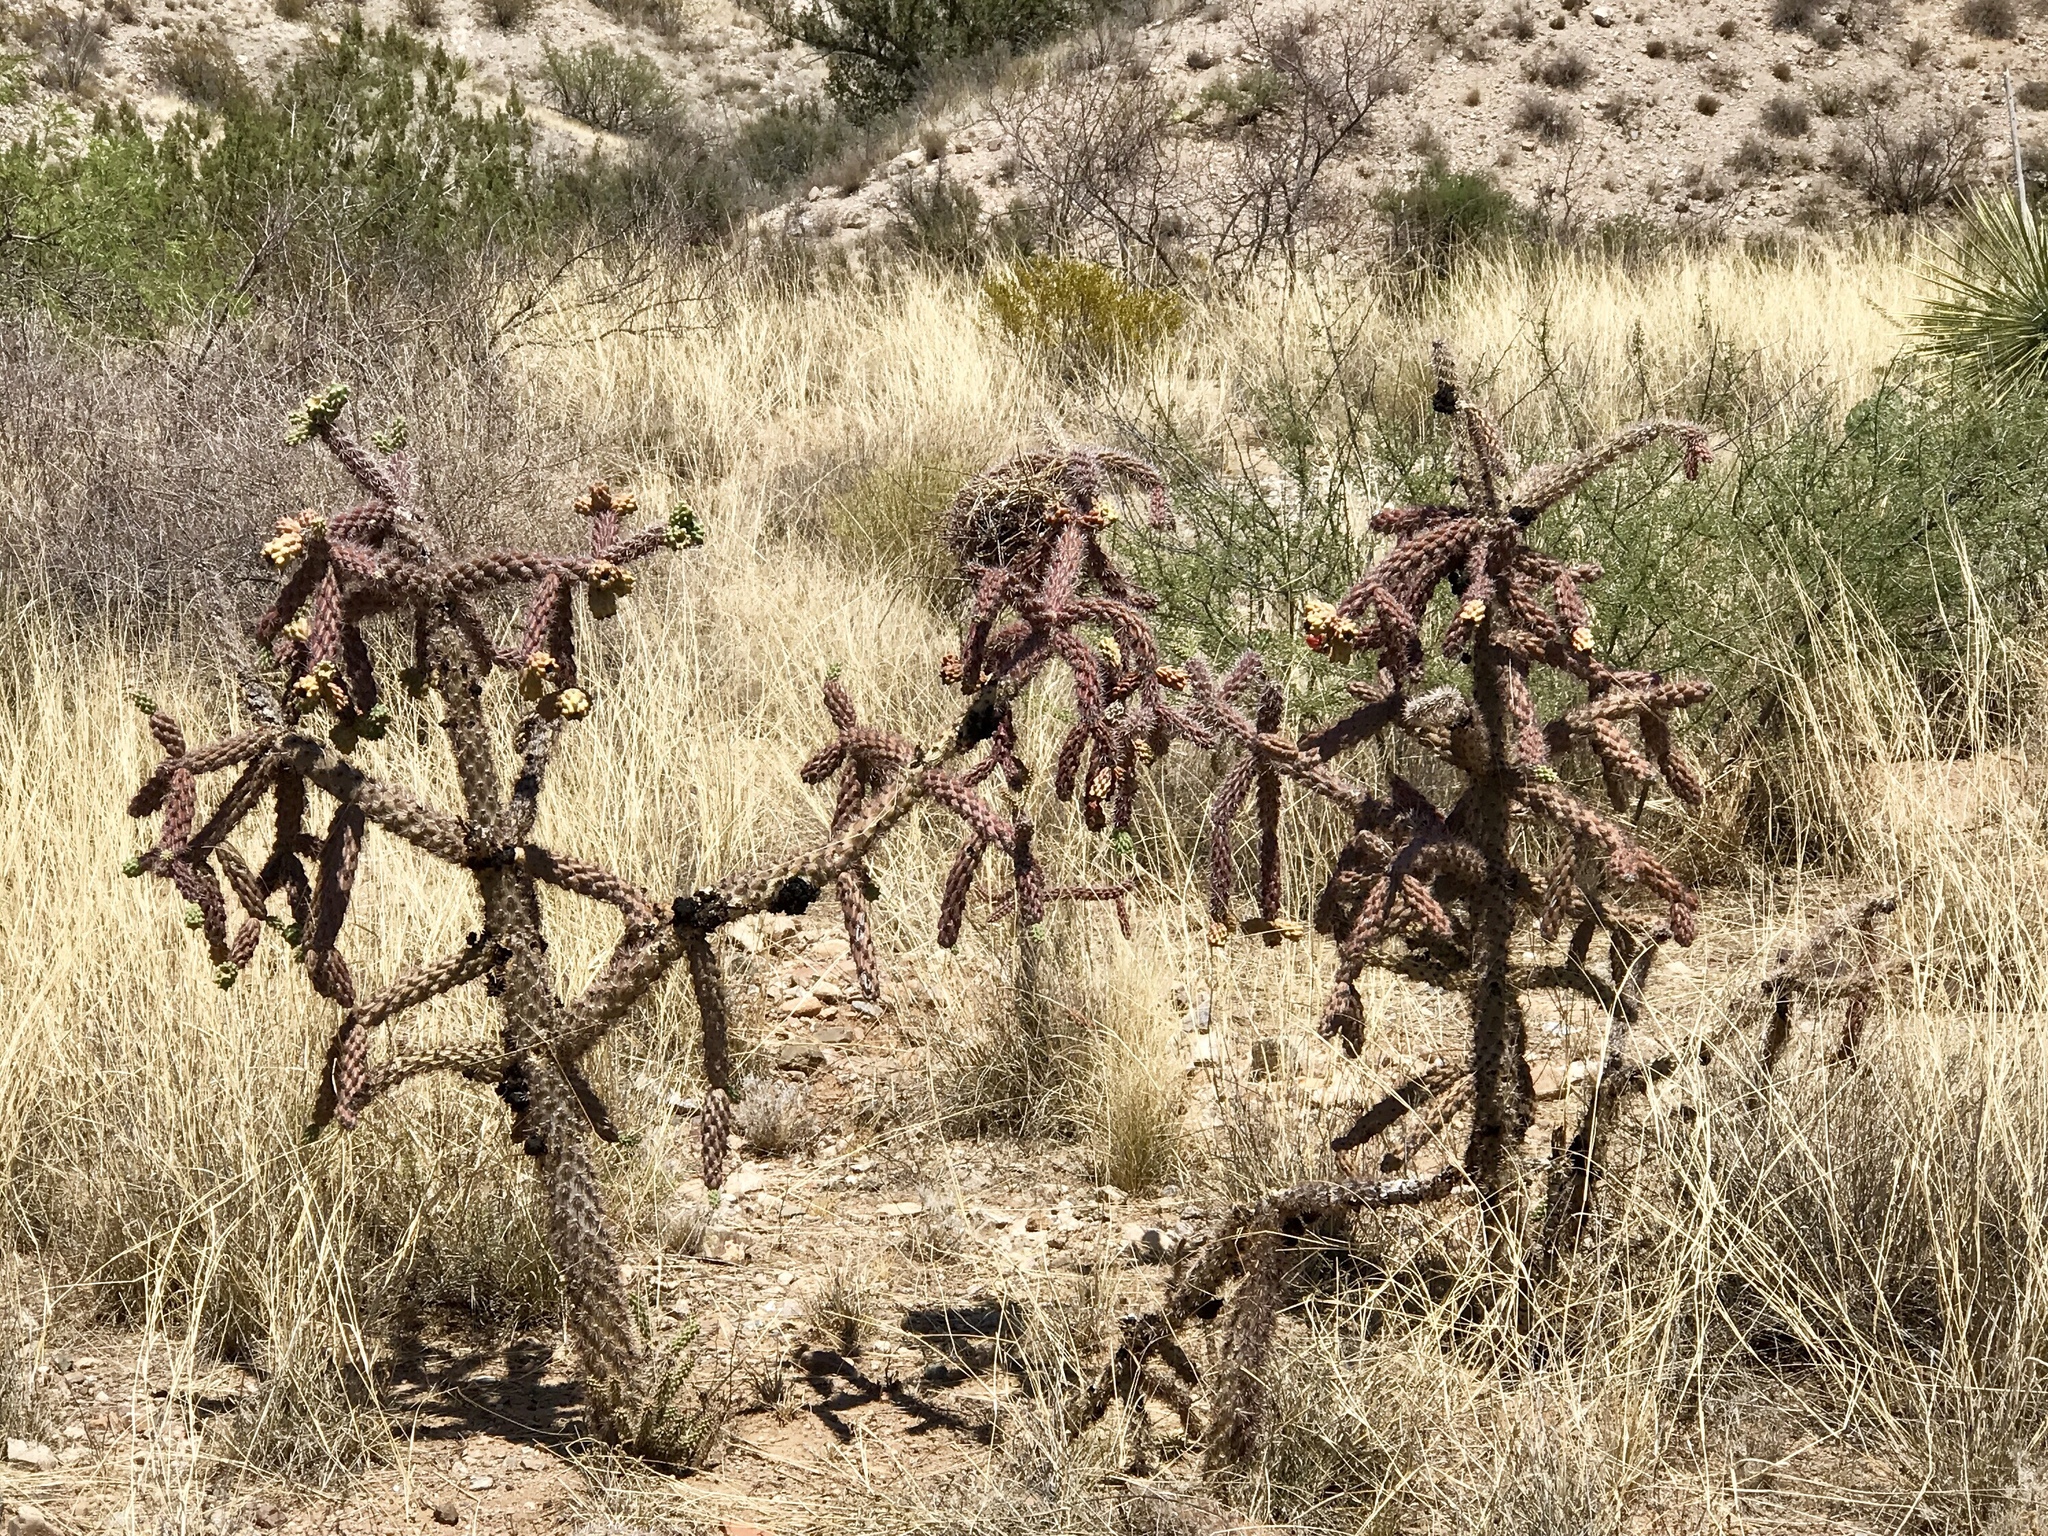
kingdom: Plantae
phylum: Tracheophyta
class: Magnoliopsida
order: Caryophyllales
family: Cactaceae
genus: Cylindropuntia
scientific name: Cylindropuntia thurberi
